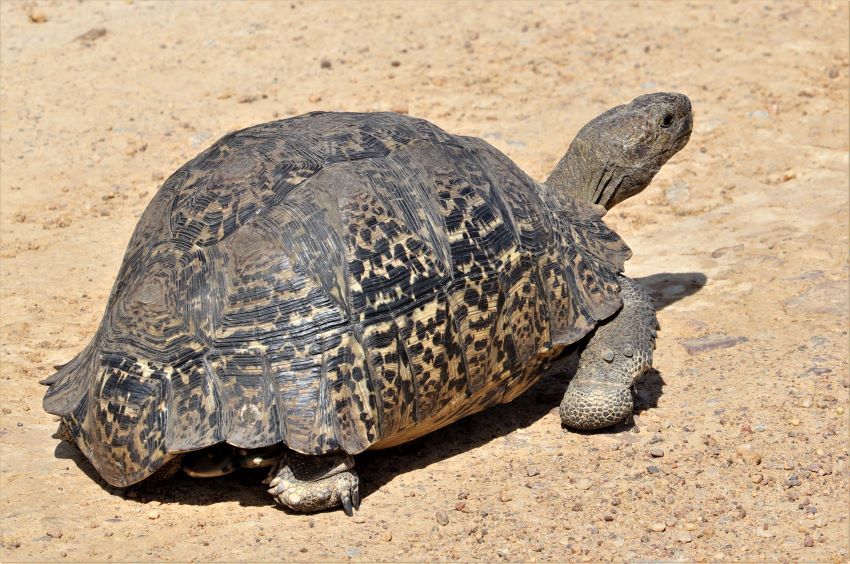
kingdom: Animalia
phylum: Chordata
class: Testudines
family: Testudinidae
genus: Stigmochelys
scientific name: Stigmochelys pardalis
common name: Leopard tortoise
